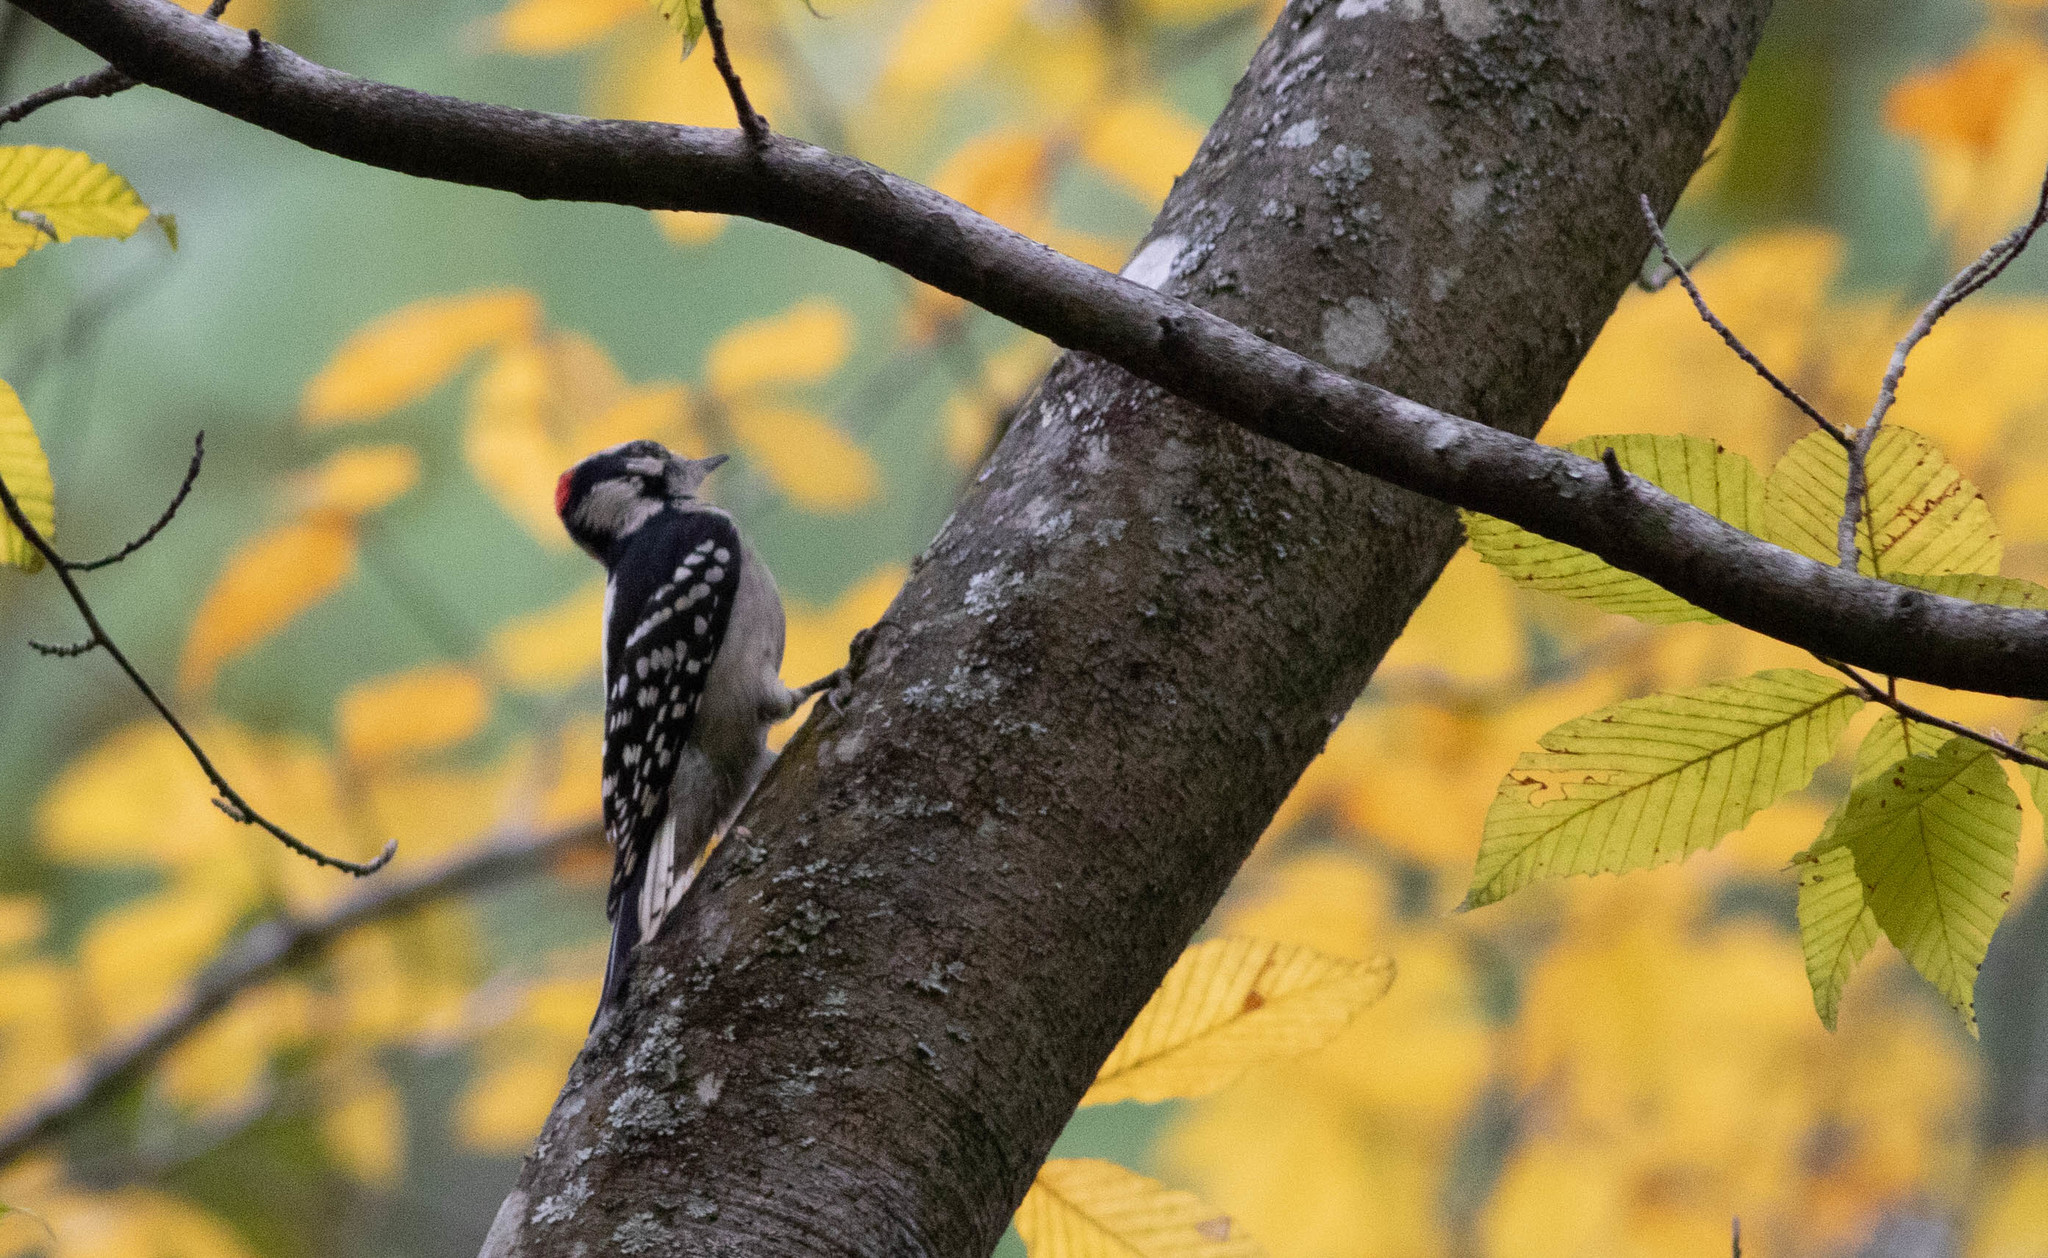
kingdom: Animalia
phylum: Chordata
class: Aves
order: Piciformes
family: Picidae
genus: Dryobates
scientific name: Dryobates pubescens
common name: Downy woodpecker
